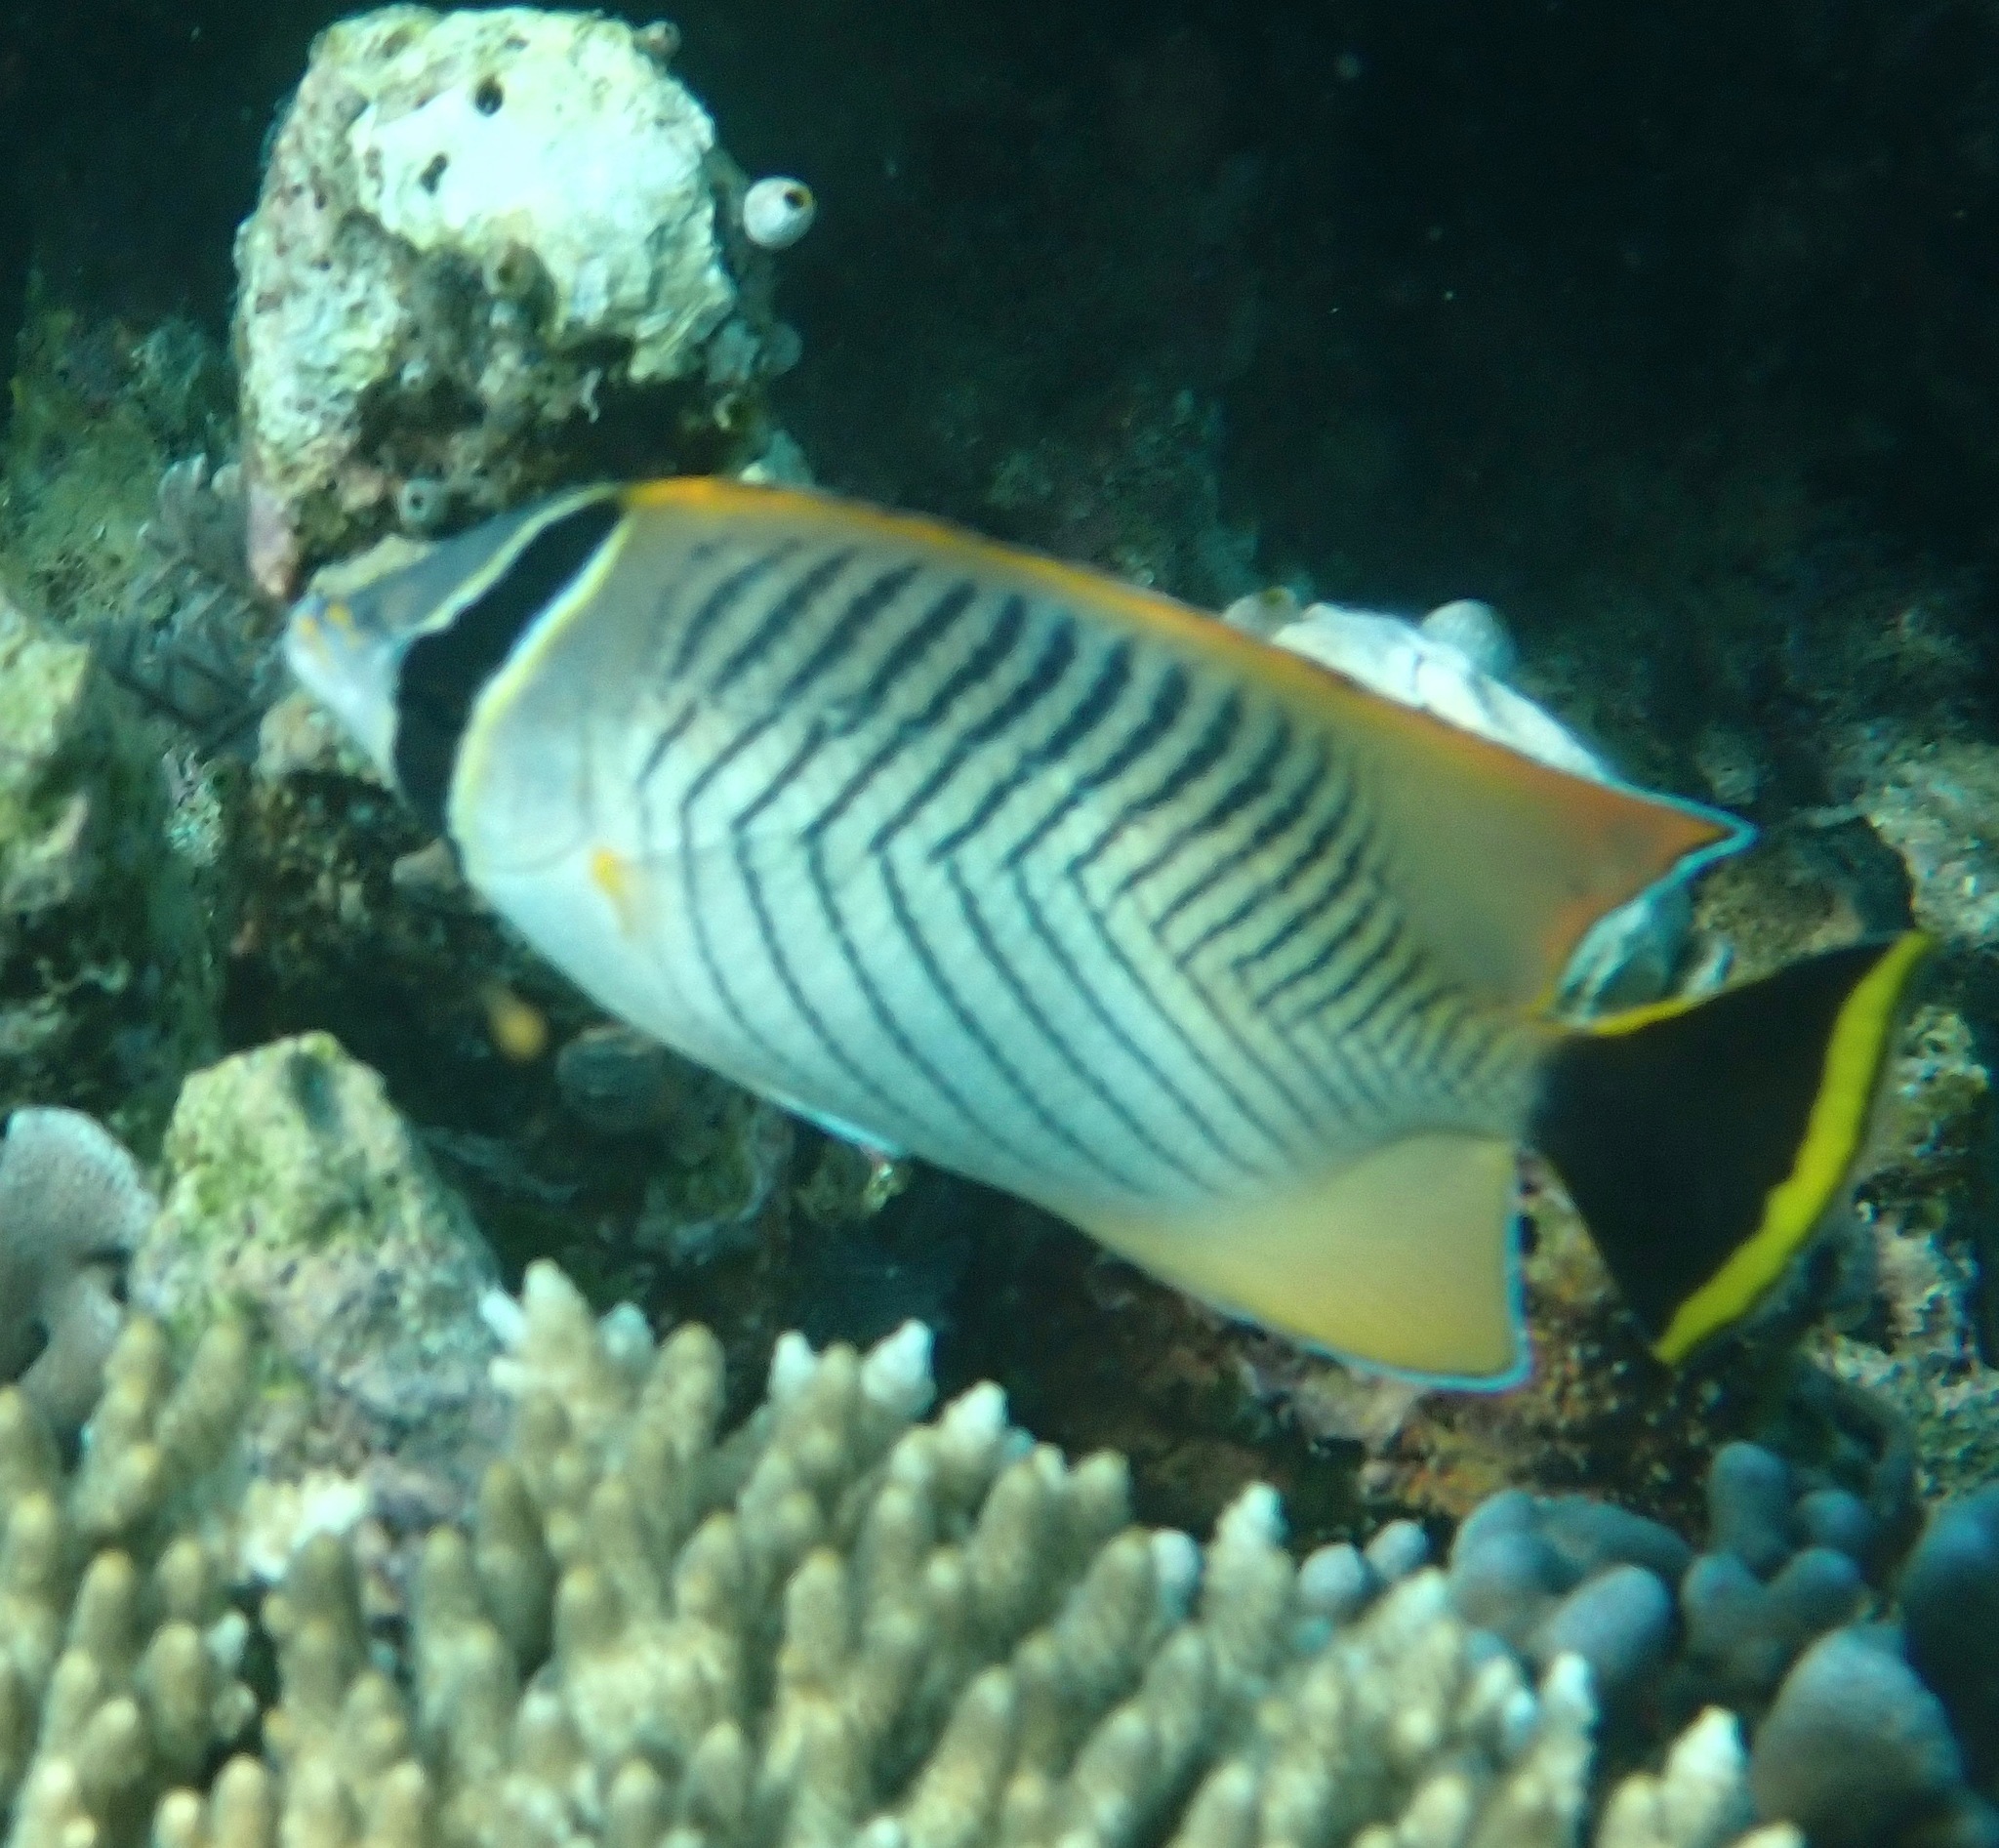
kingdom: Animalia
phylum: Chordata
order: Perciformes
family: Chaetodontidae
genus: Chaetodon
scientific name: Chaetodon trifascialis
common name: Chevroned butterflyfish
